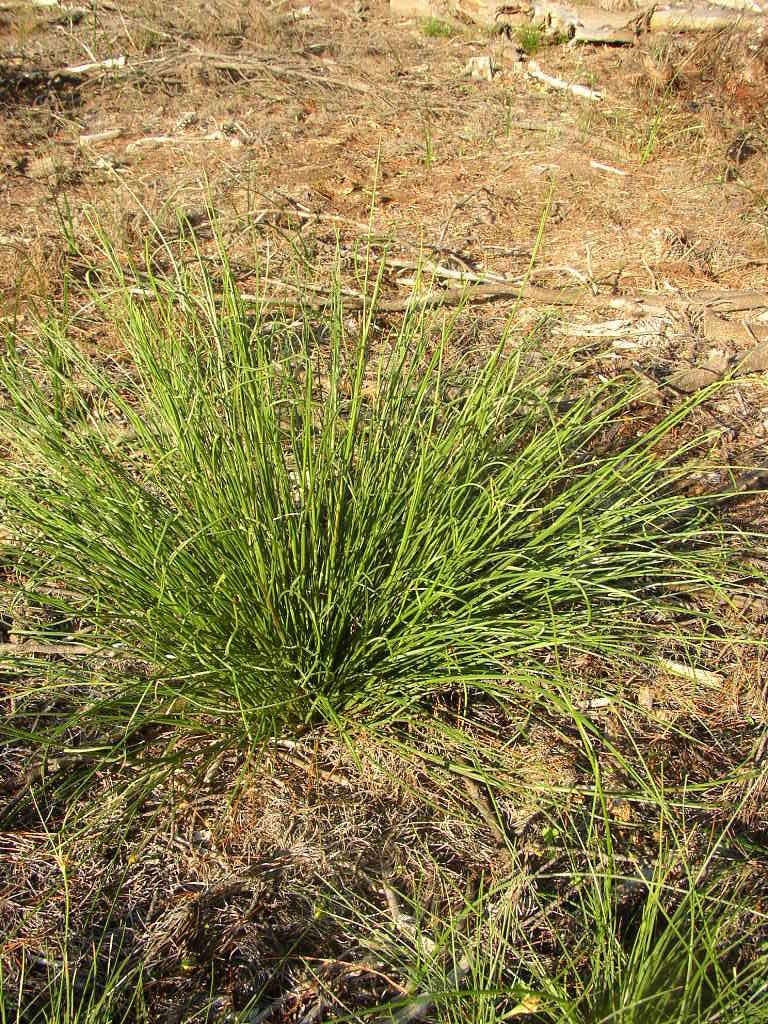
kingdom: Plantae
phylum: Tracheophyta
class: Liliopsida
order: Poales
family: Poaceae
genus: Tribolium
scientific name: Tribolium uniolae
